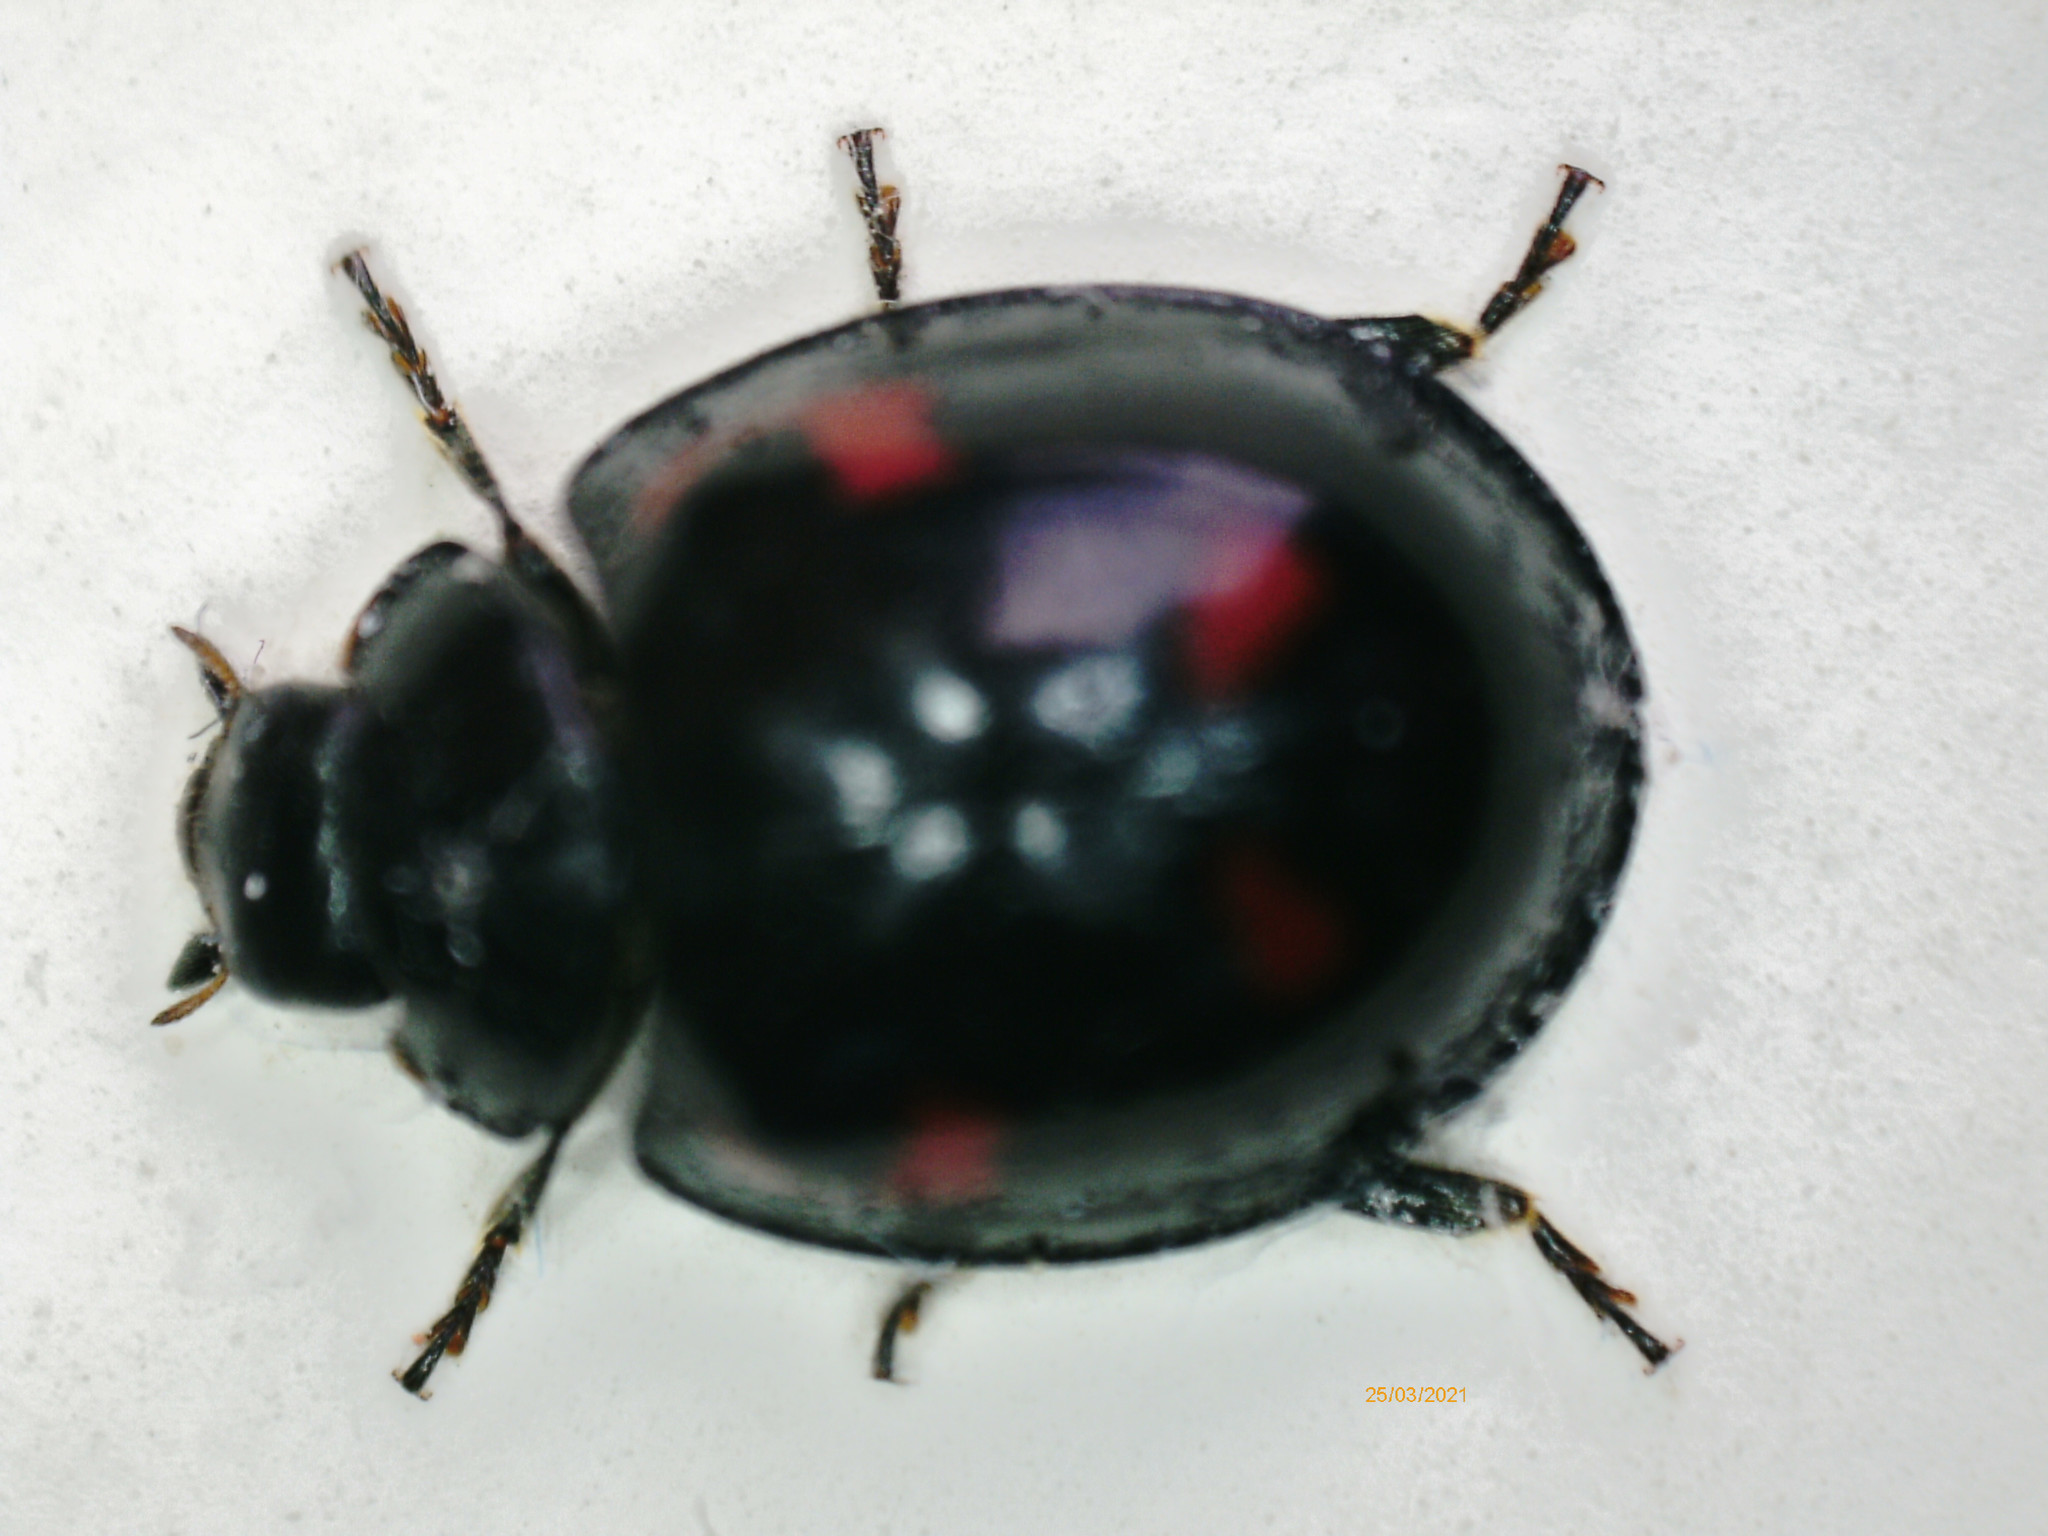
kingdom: Animalia
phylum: Arthropoda
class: Insecta
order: Coleoptera
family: Coccinellidae
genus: Brumus
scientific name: Brumus quadripustulatus
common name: Ladybird beetle
